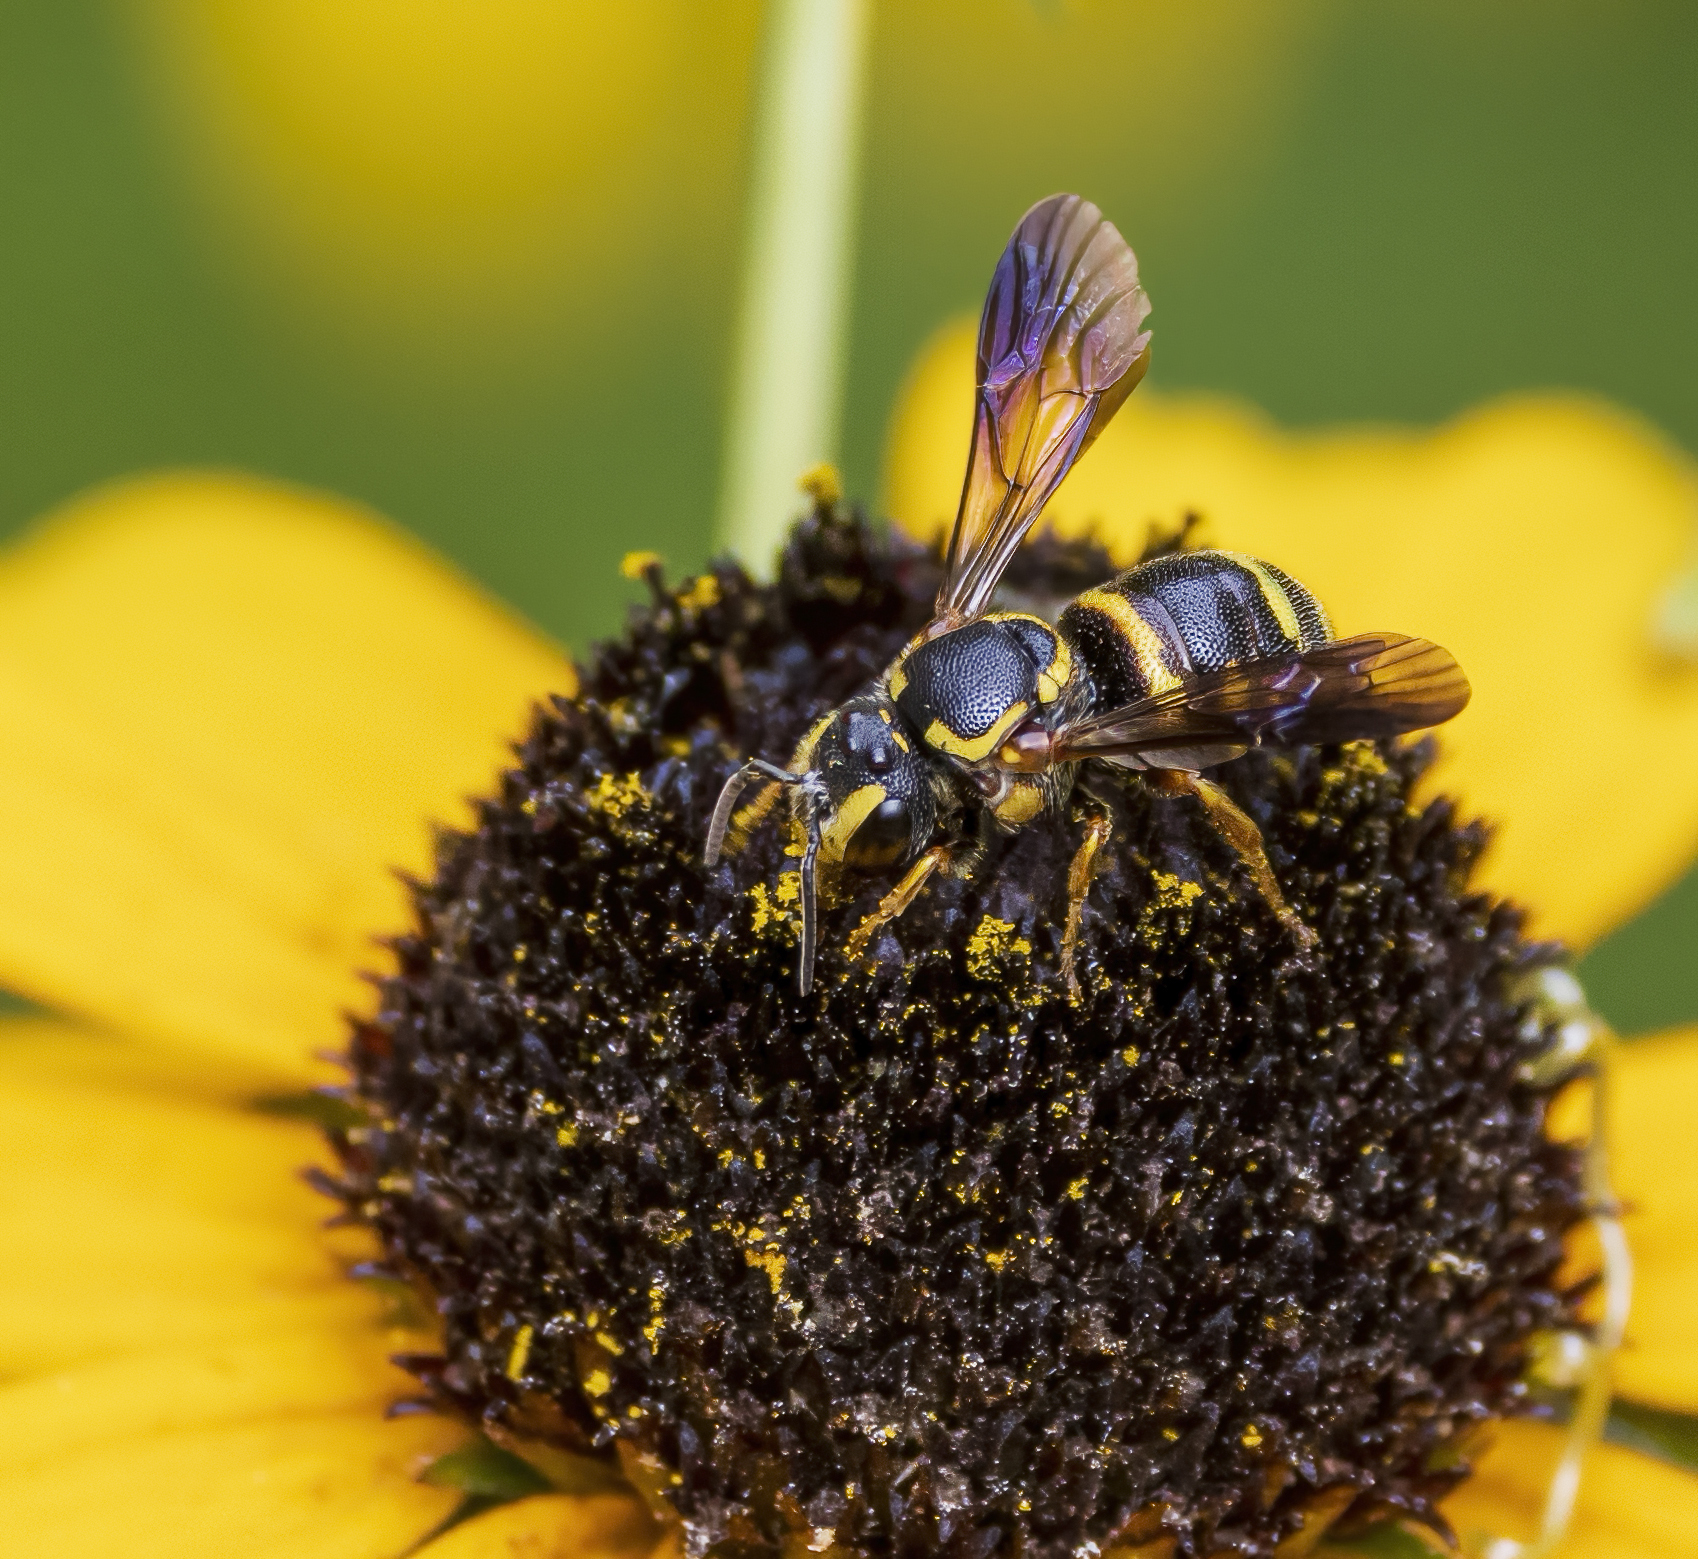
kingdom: Animalia
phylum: Arthropoda
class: Insecta
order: Hymenoptera
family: Megachilidae
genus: Stelis
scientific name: Stelis louisae
